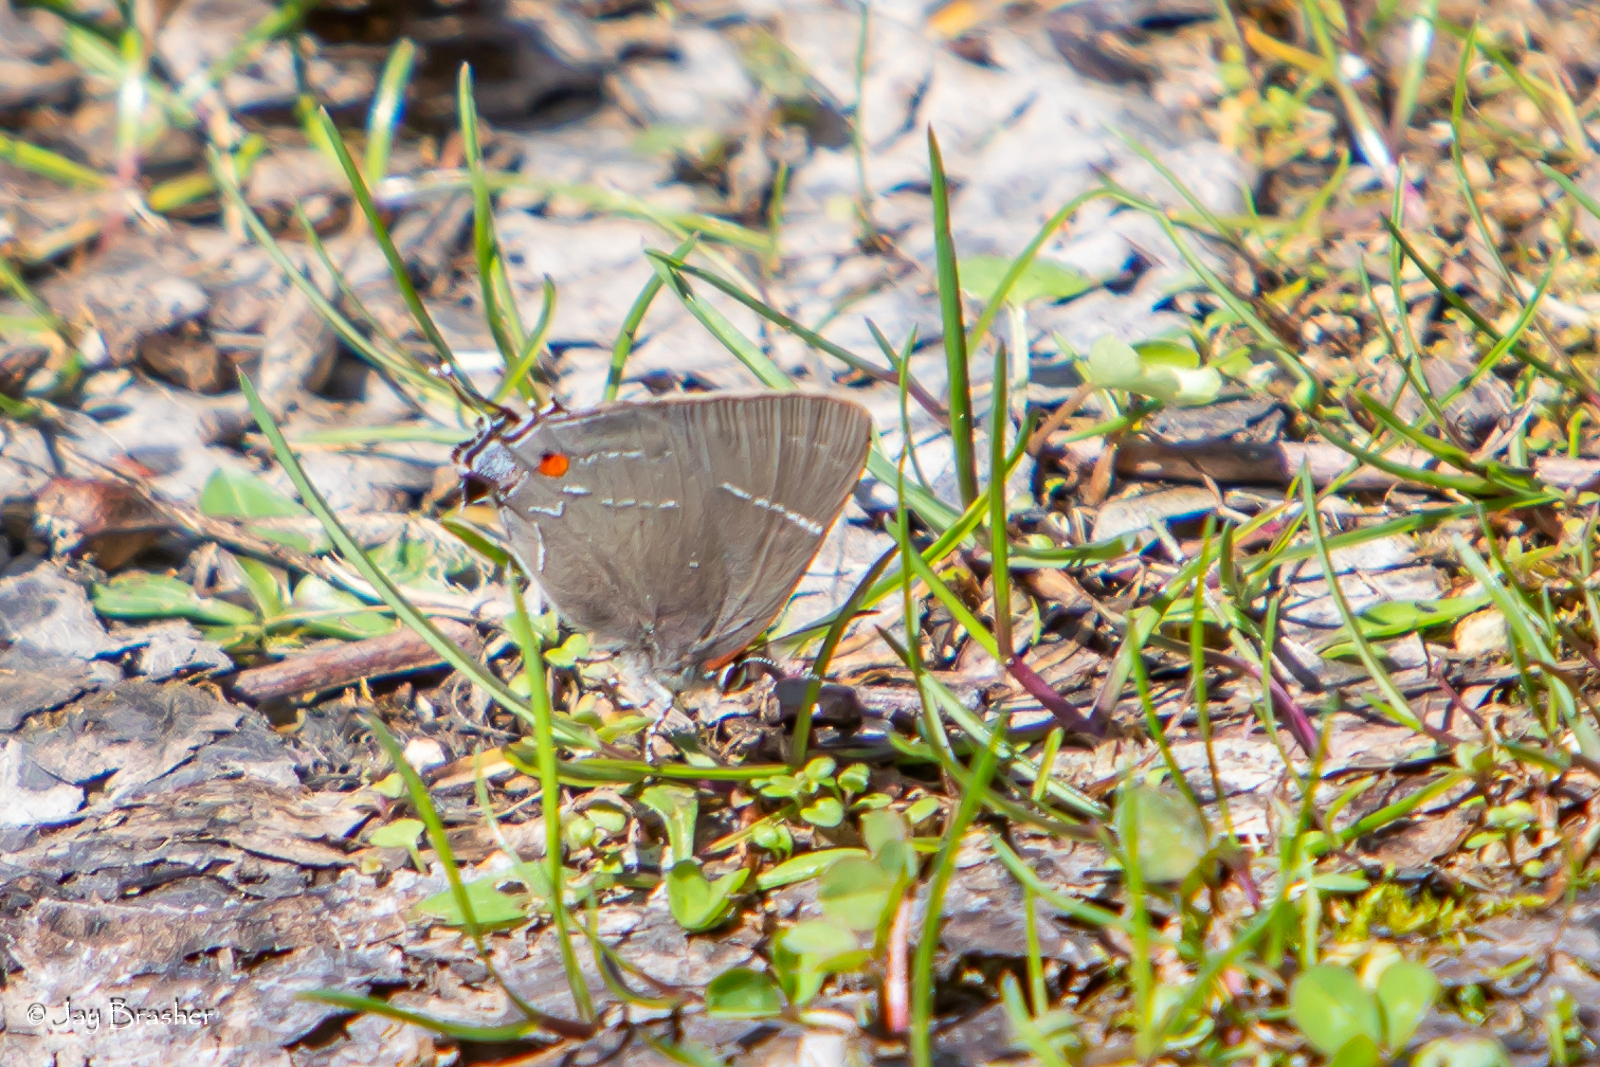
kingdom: Animalia
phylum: Arthropoda
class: Insecta
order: Lepidoptera
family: Lycaenidae
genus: Parrhasius
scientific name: Parrhasius m-album
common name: White m hairstreak
